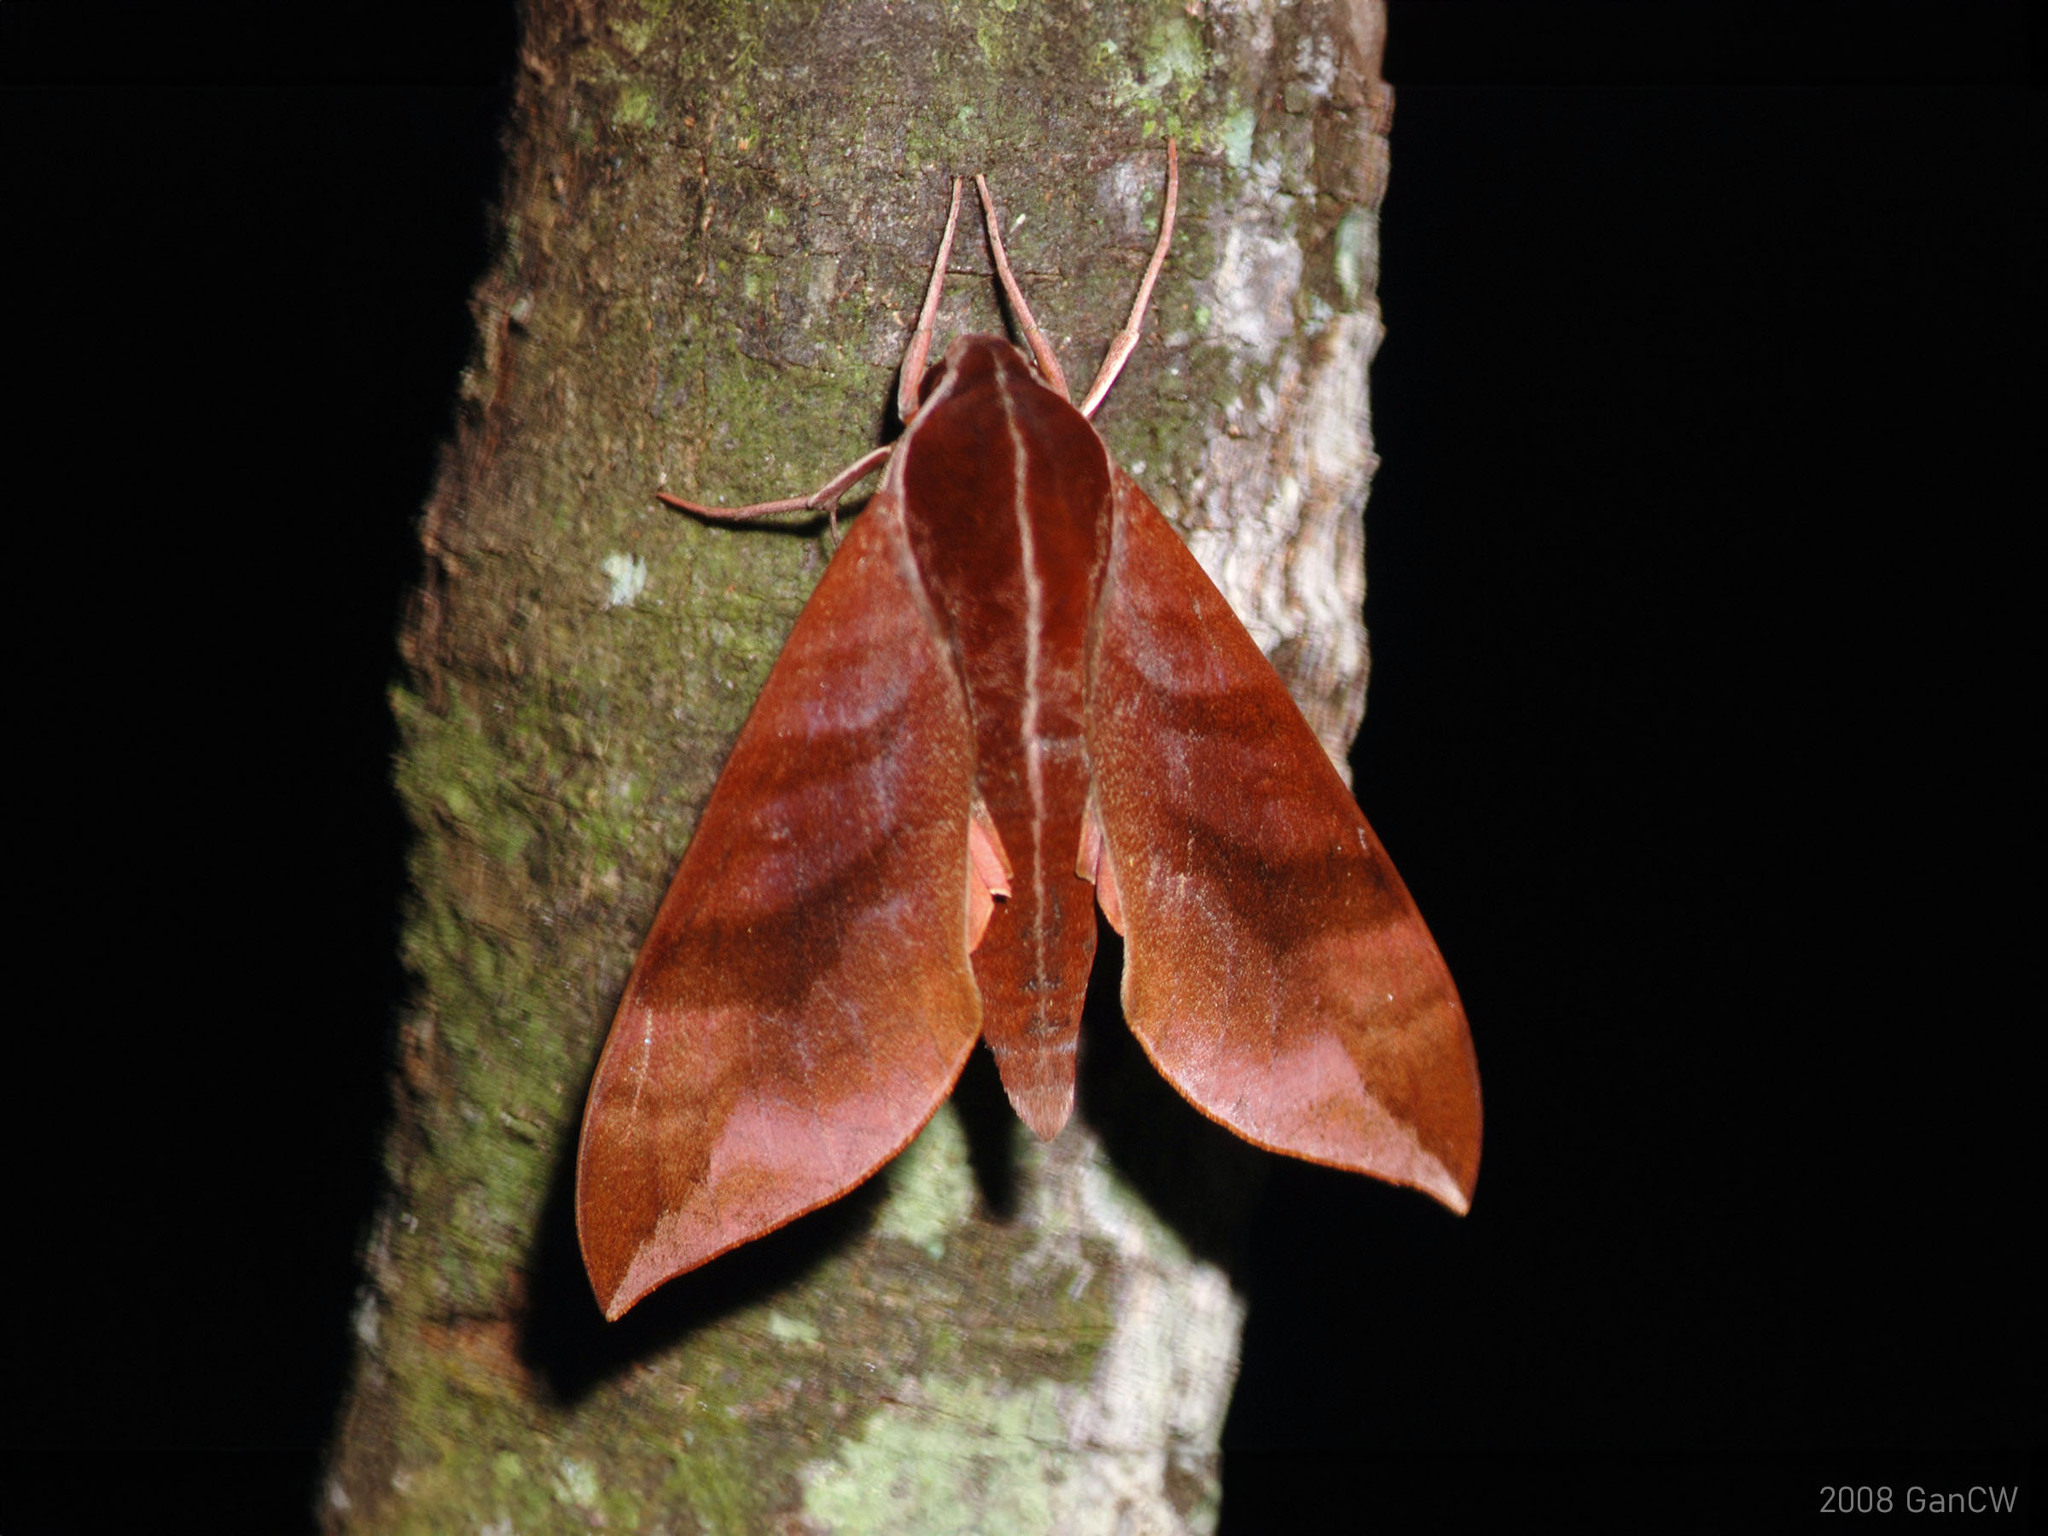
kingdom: Animalia
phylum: Arthropoda
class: Insecta
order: Lepidoptera
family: Sphingidae
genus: Ampelophaga
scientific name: Ampelophaga rubiginosa
